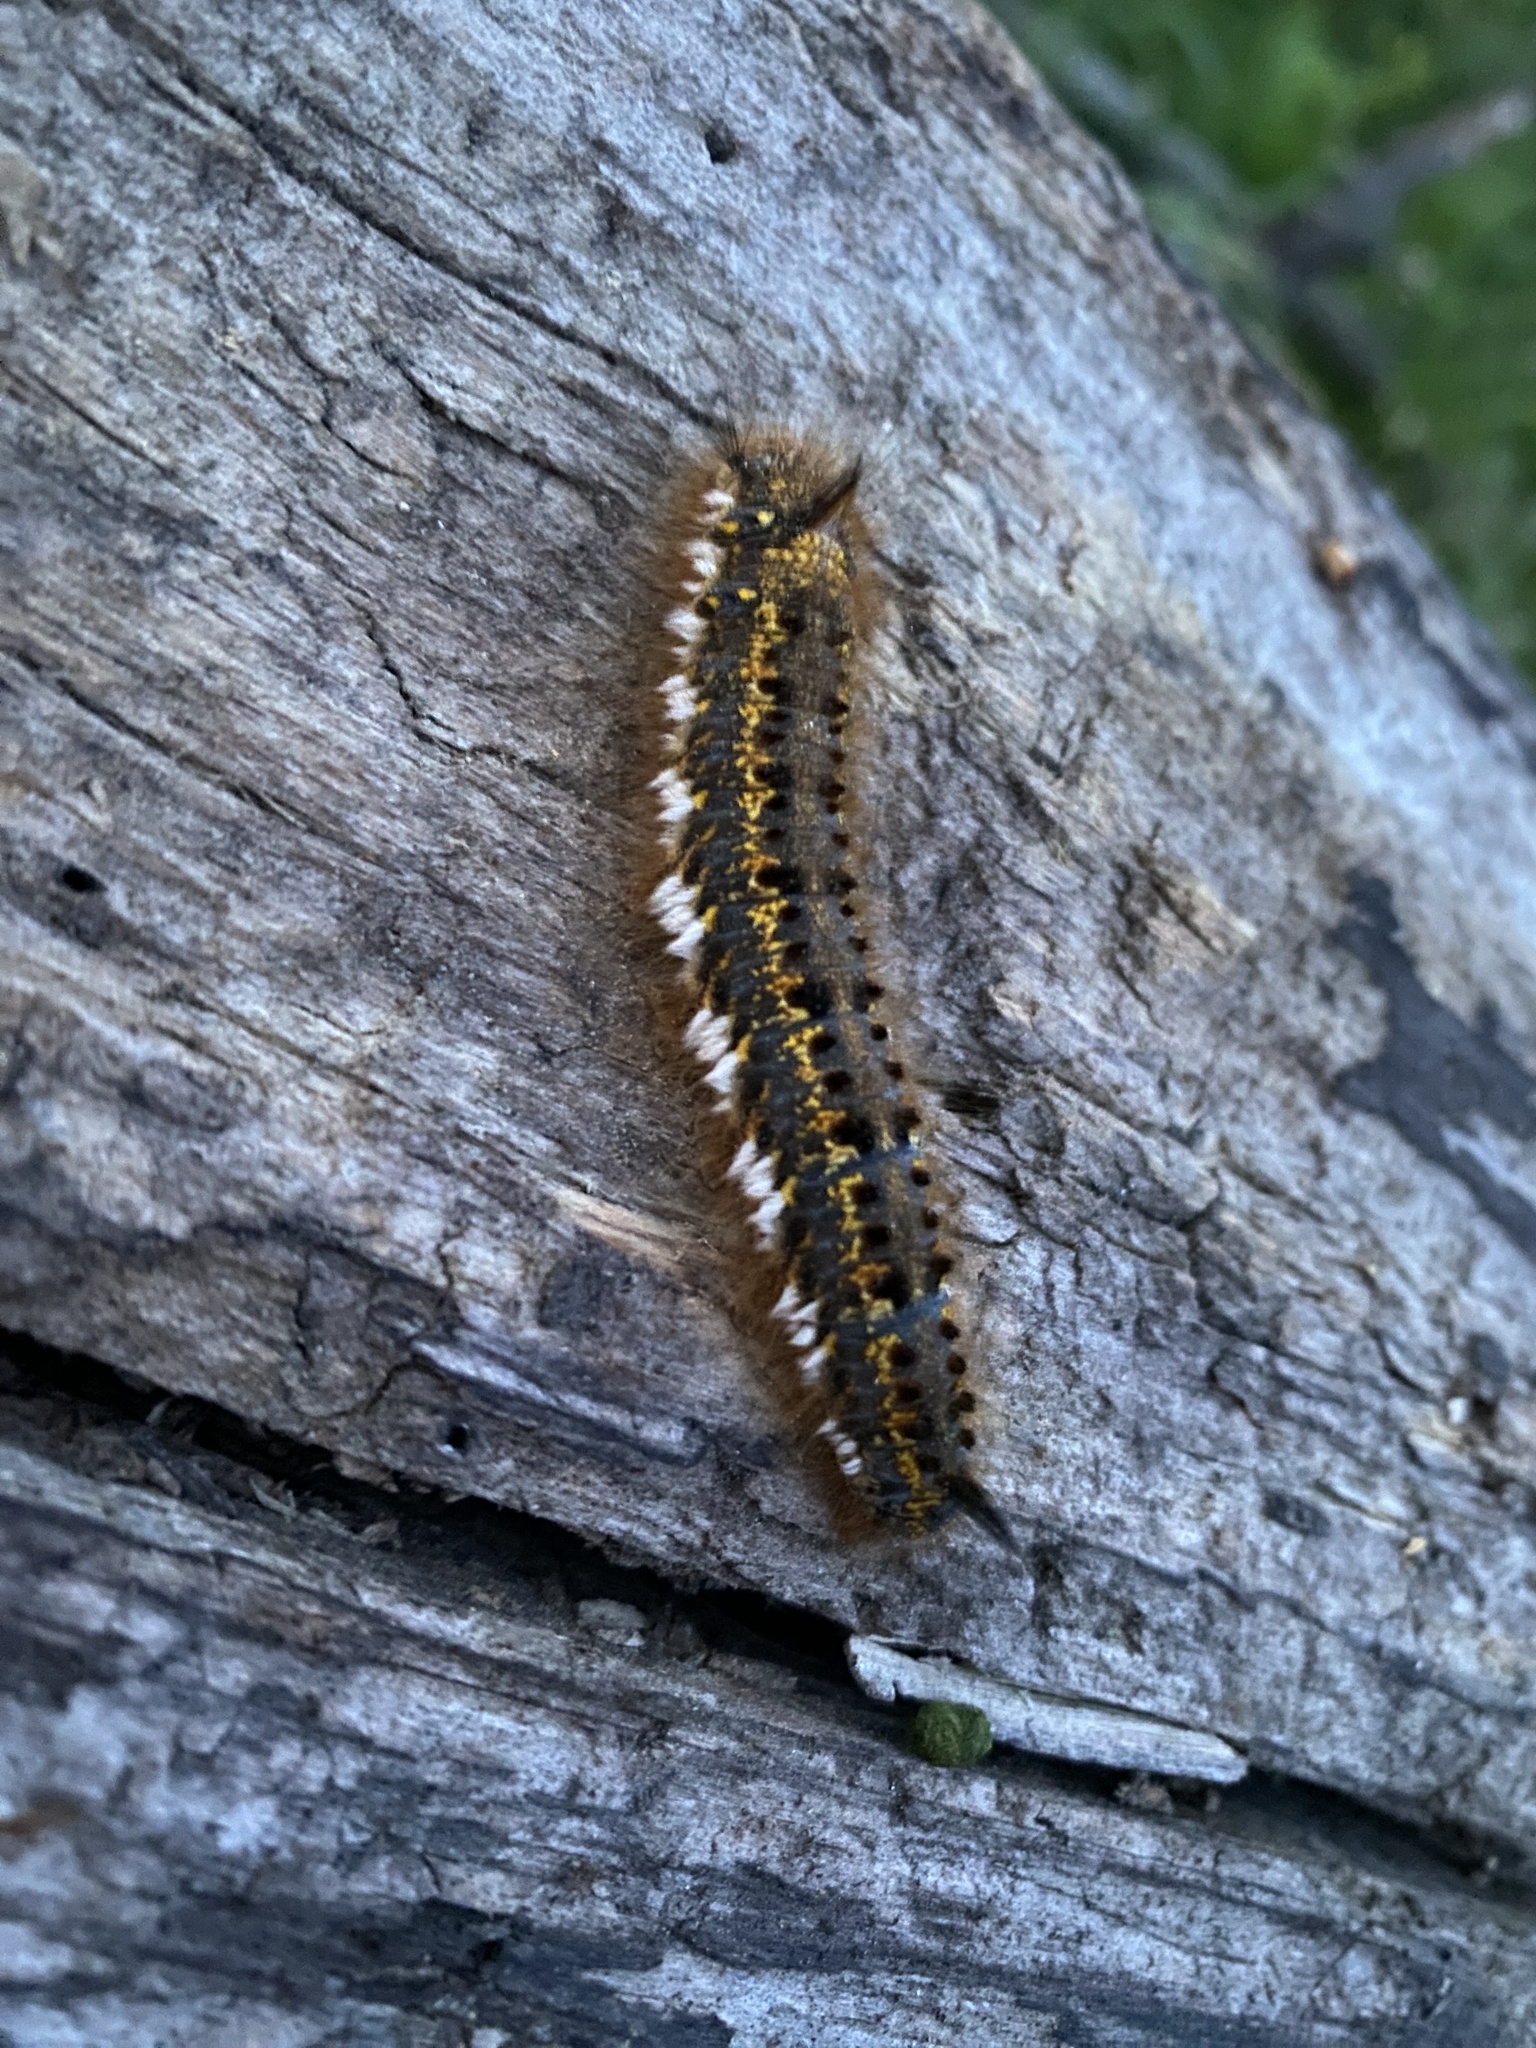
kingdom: Animalia
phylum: Arthropoda
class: Insecta
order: Lepidoptera
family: Lasiocampidae
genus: Euthrix
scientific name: Euthrix potatoria
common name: Drinker
